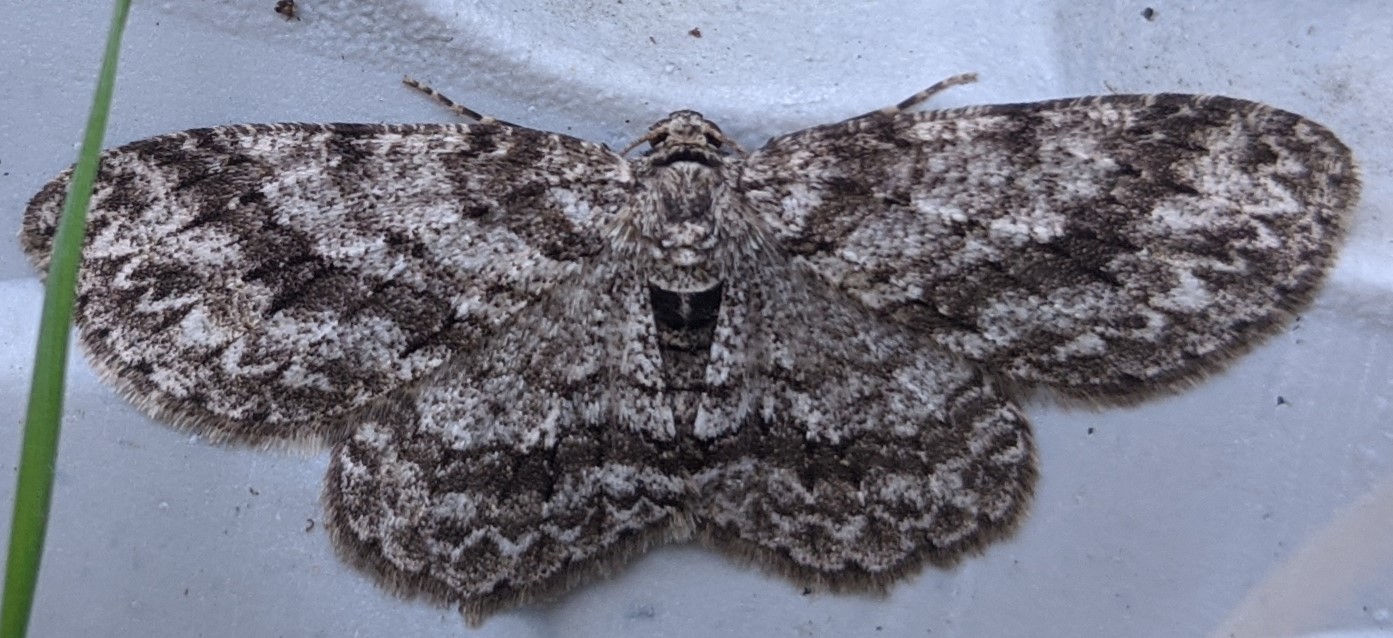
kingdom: Animalia
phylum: Arthropoda
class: Insecta
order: Lepidoptera
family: Geometridae
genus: Ectropis
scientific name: Ectropis crepuscularia
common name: Engrailed
